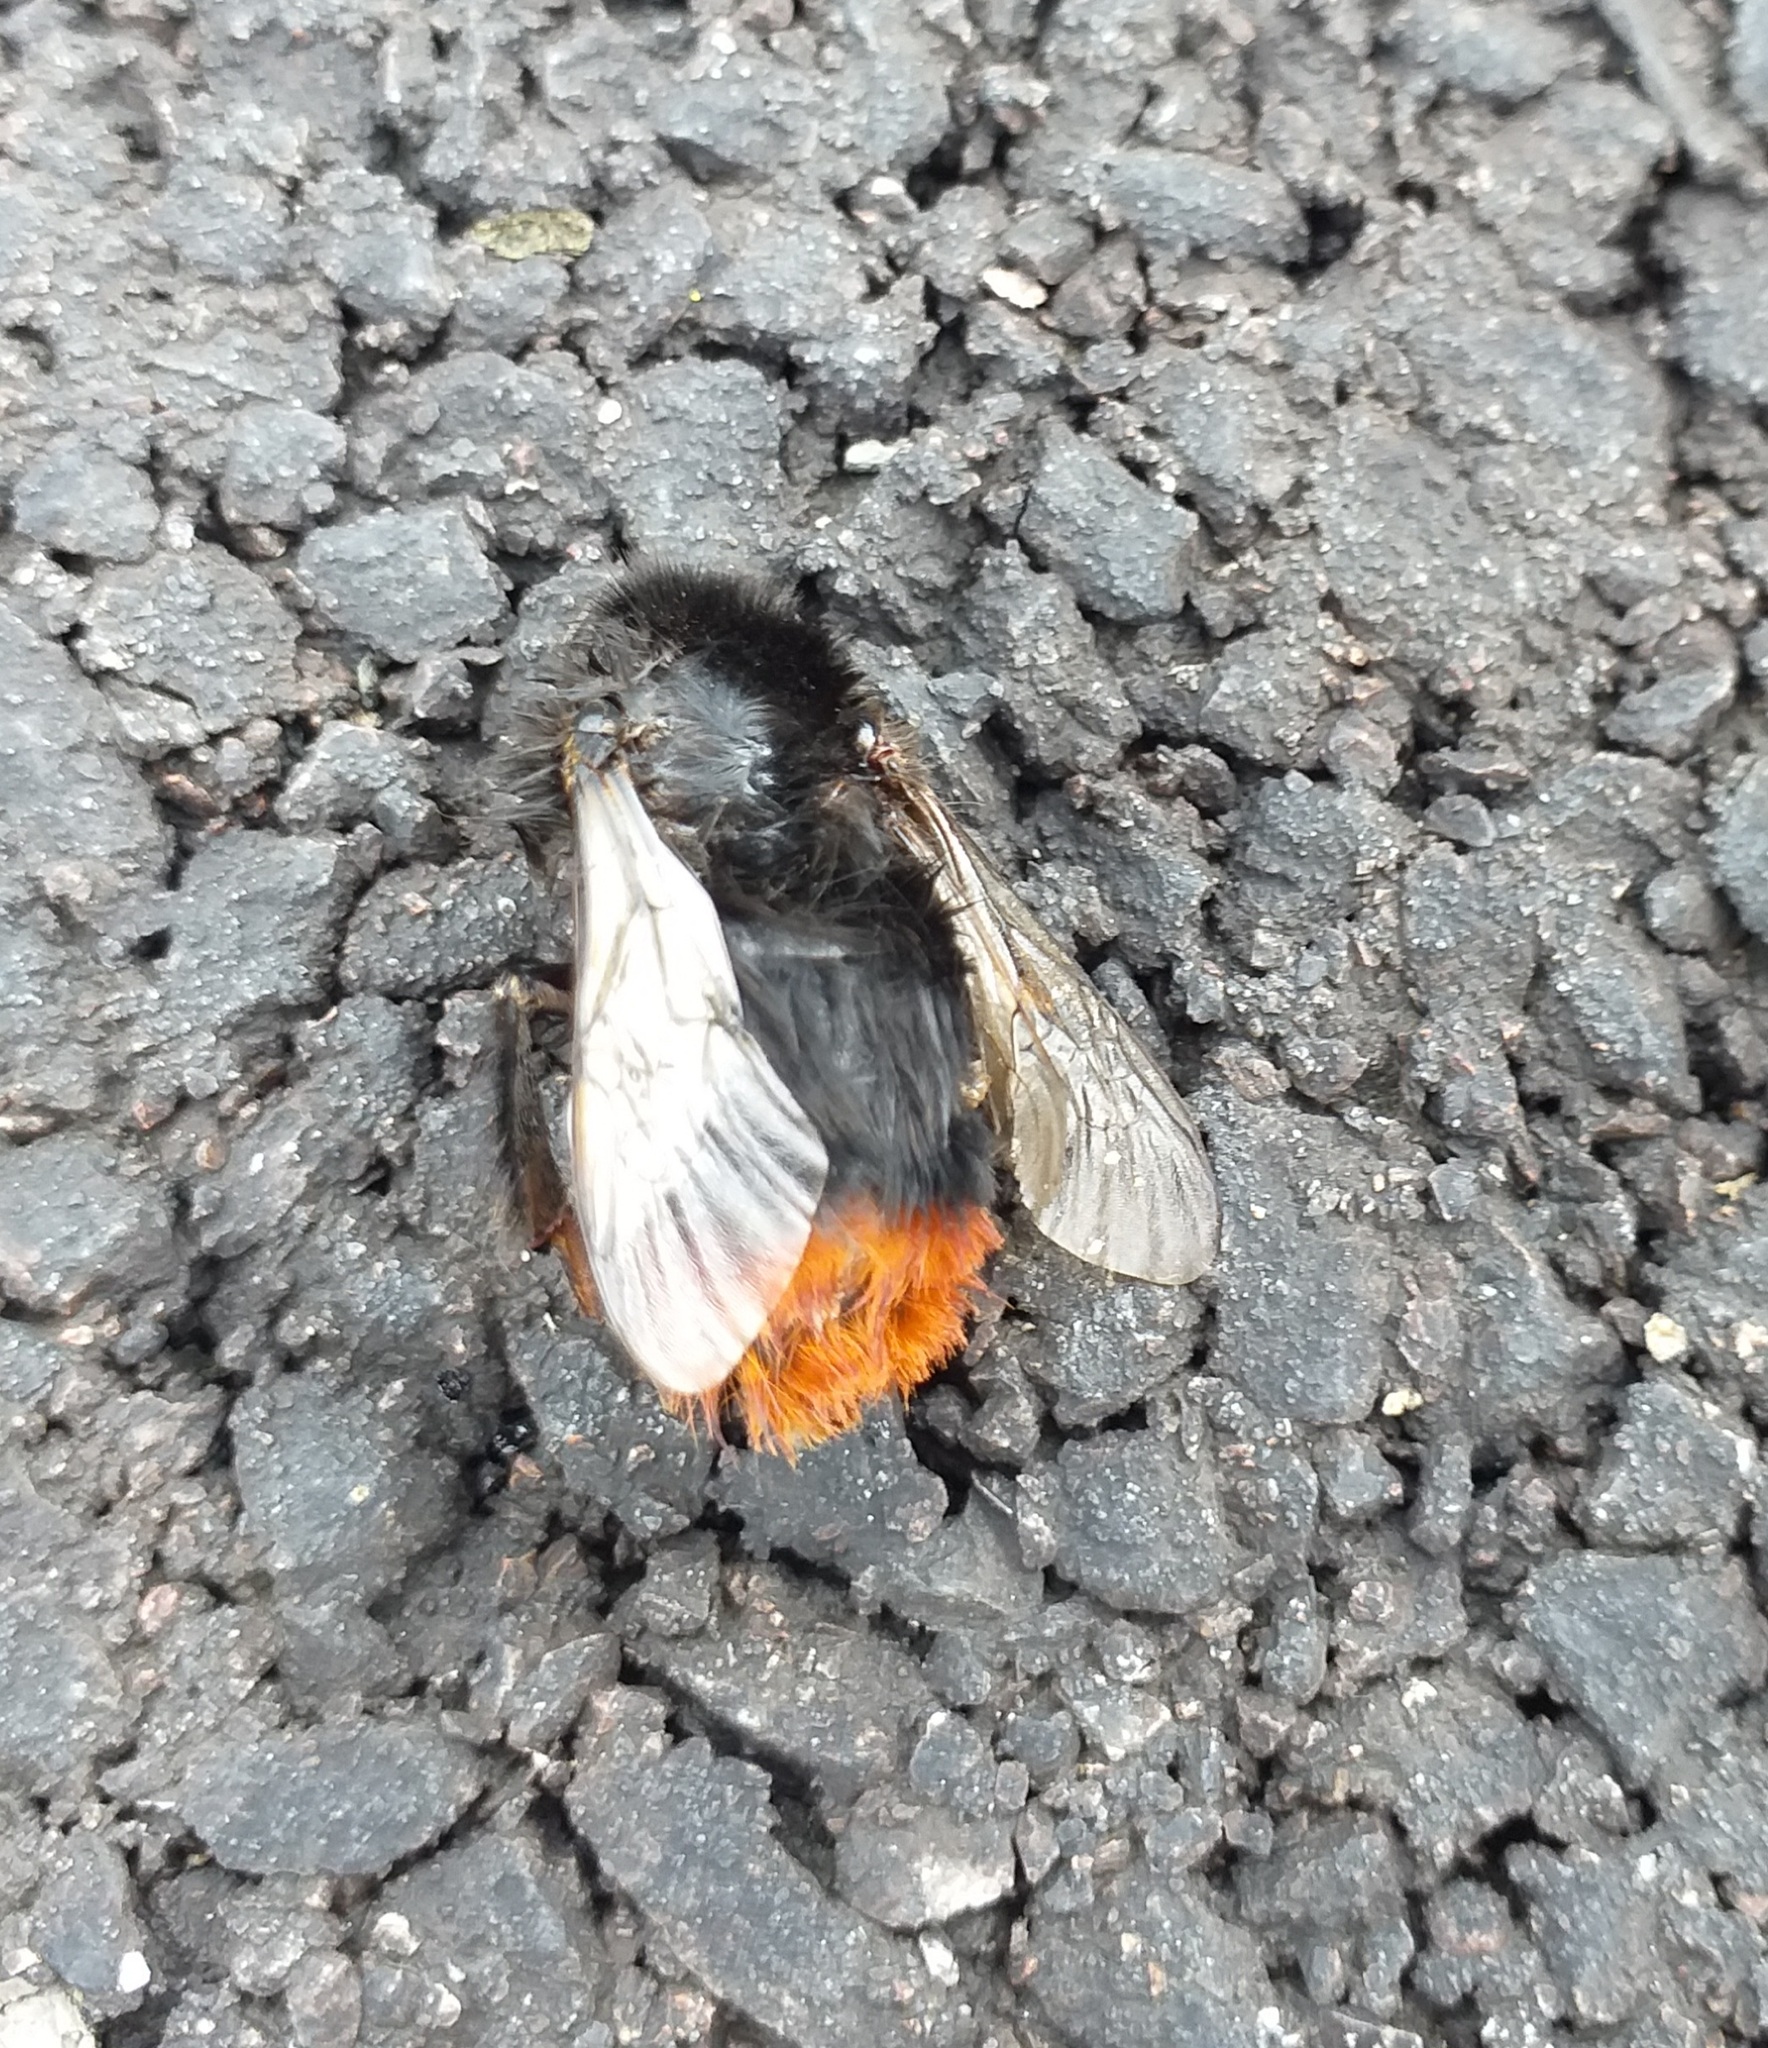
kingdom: Animalia
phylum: Arthropoda
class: Insecta
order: Hymenoptera
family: Apidae
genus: Bombus
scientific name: Bombus lapidarius
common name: Large red-tailed humble-bee
